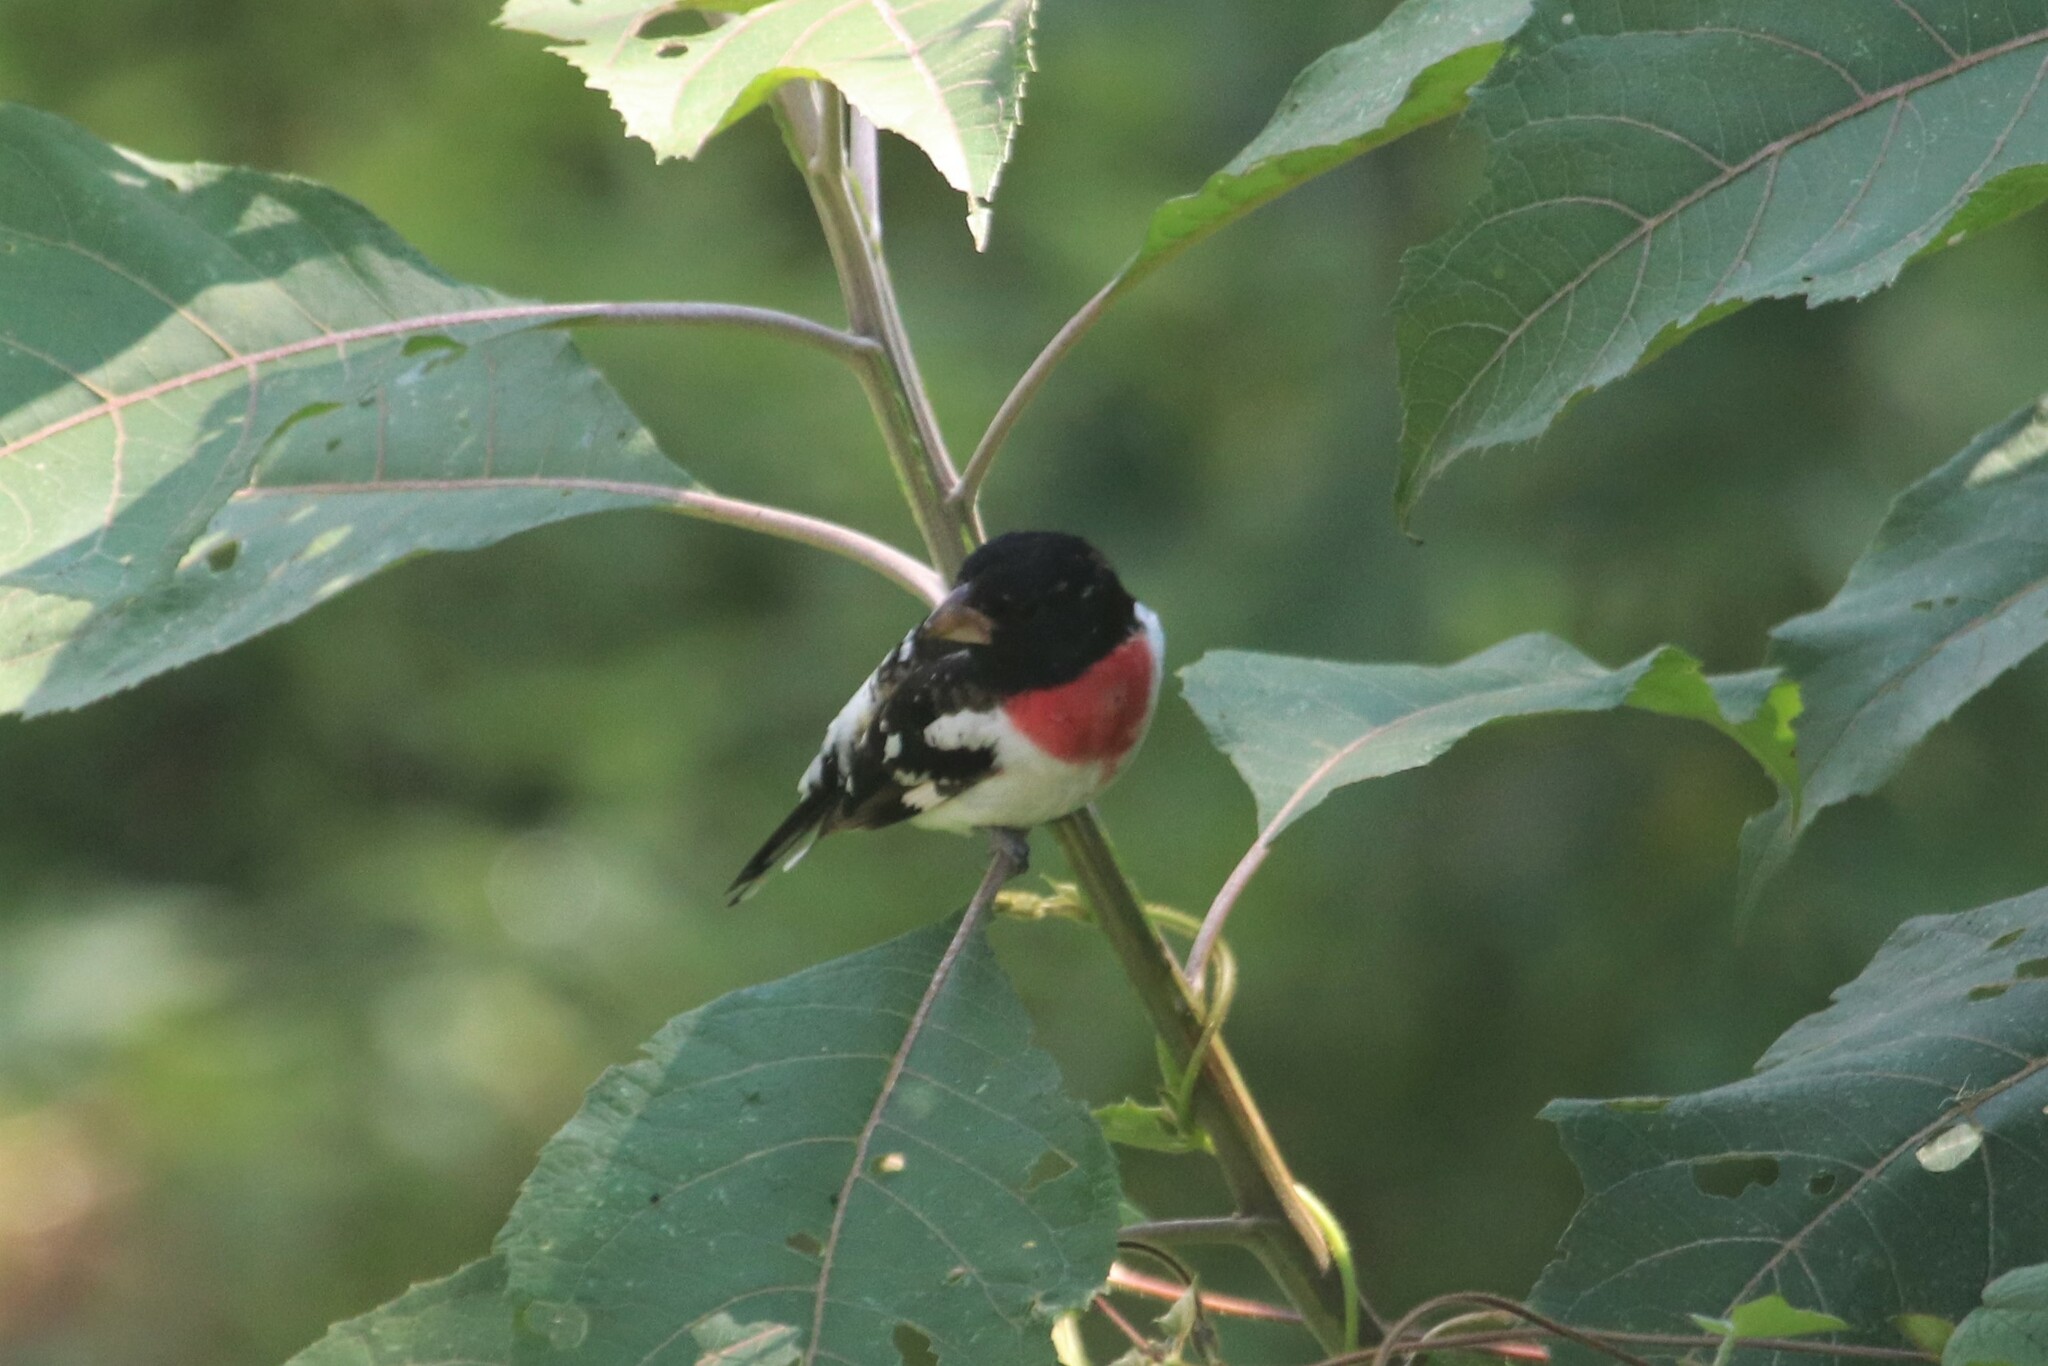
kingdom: Animalia
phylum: Chordata
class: Aves
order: Passeriformes
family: Cardinalidae
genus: Pheucticus
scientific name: Pheucticus ludovicianus
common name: Rose-breasted grosbeak
